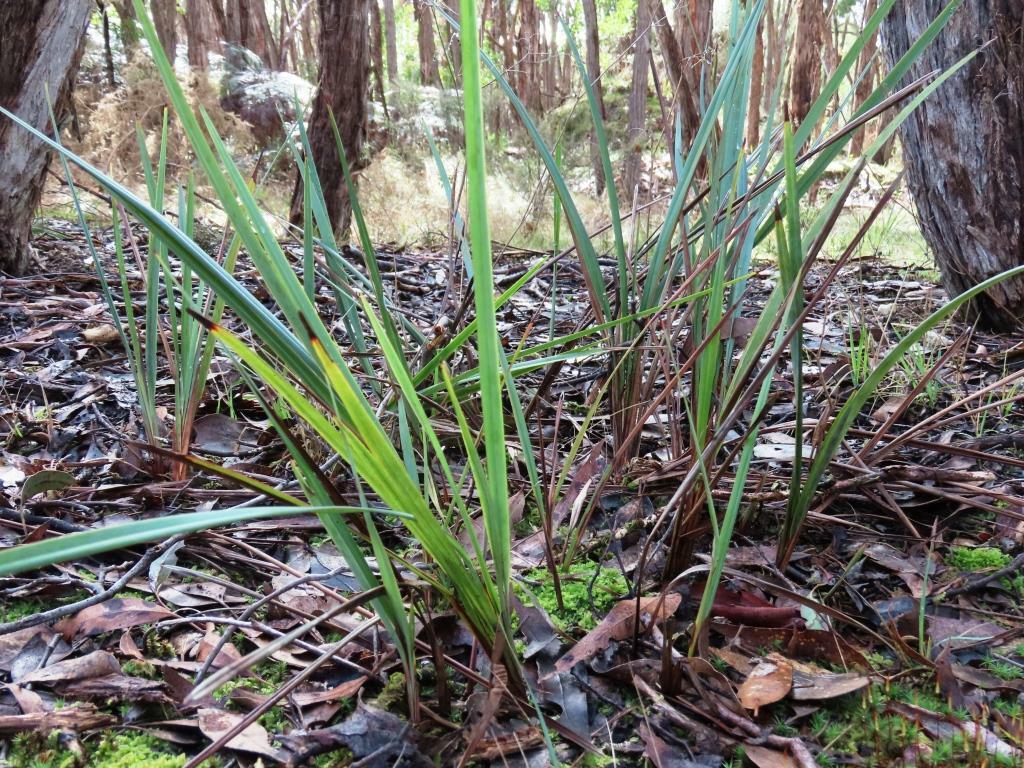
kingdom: Plantae
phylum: Tracheophyta
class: Liliopsida
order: Asparagales
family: Asphodelaceae
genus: Dianella
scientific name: Dianella revoluta
